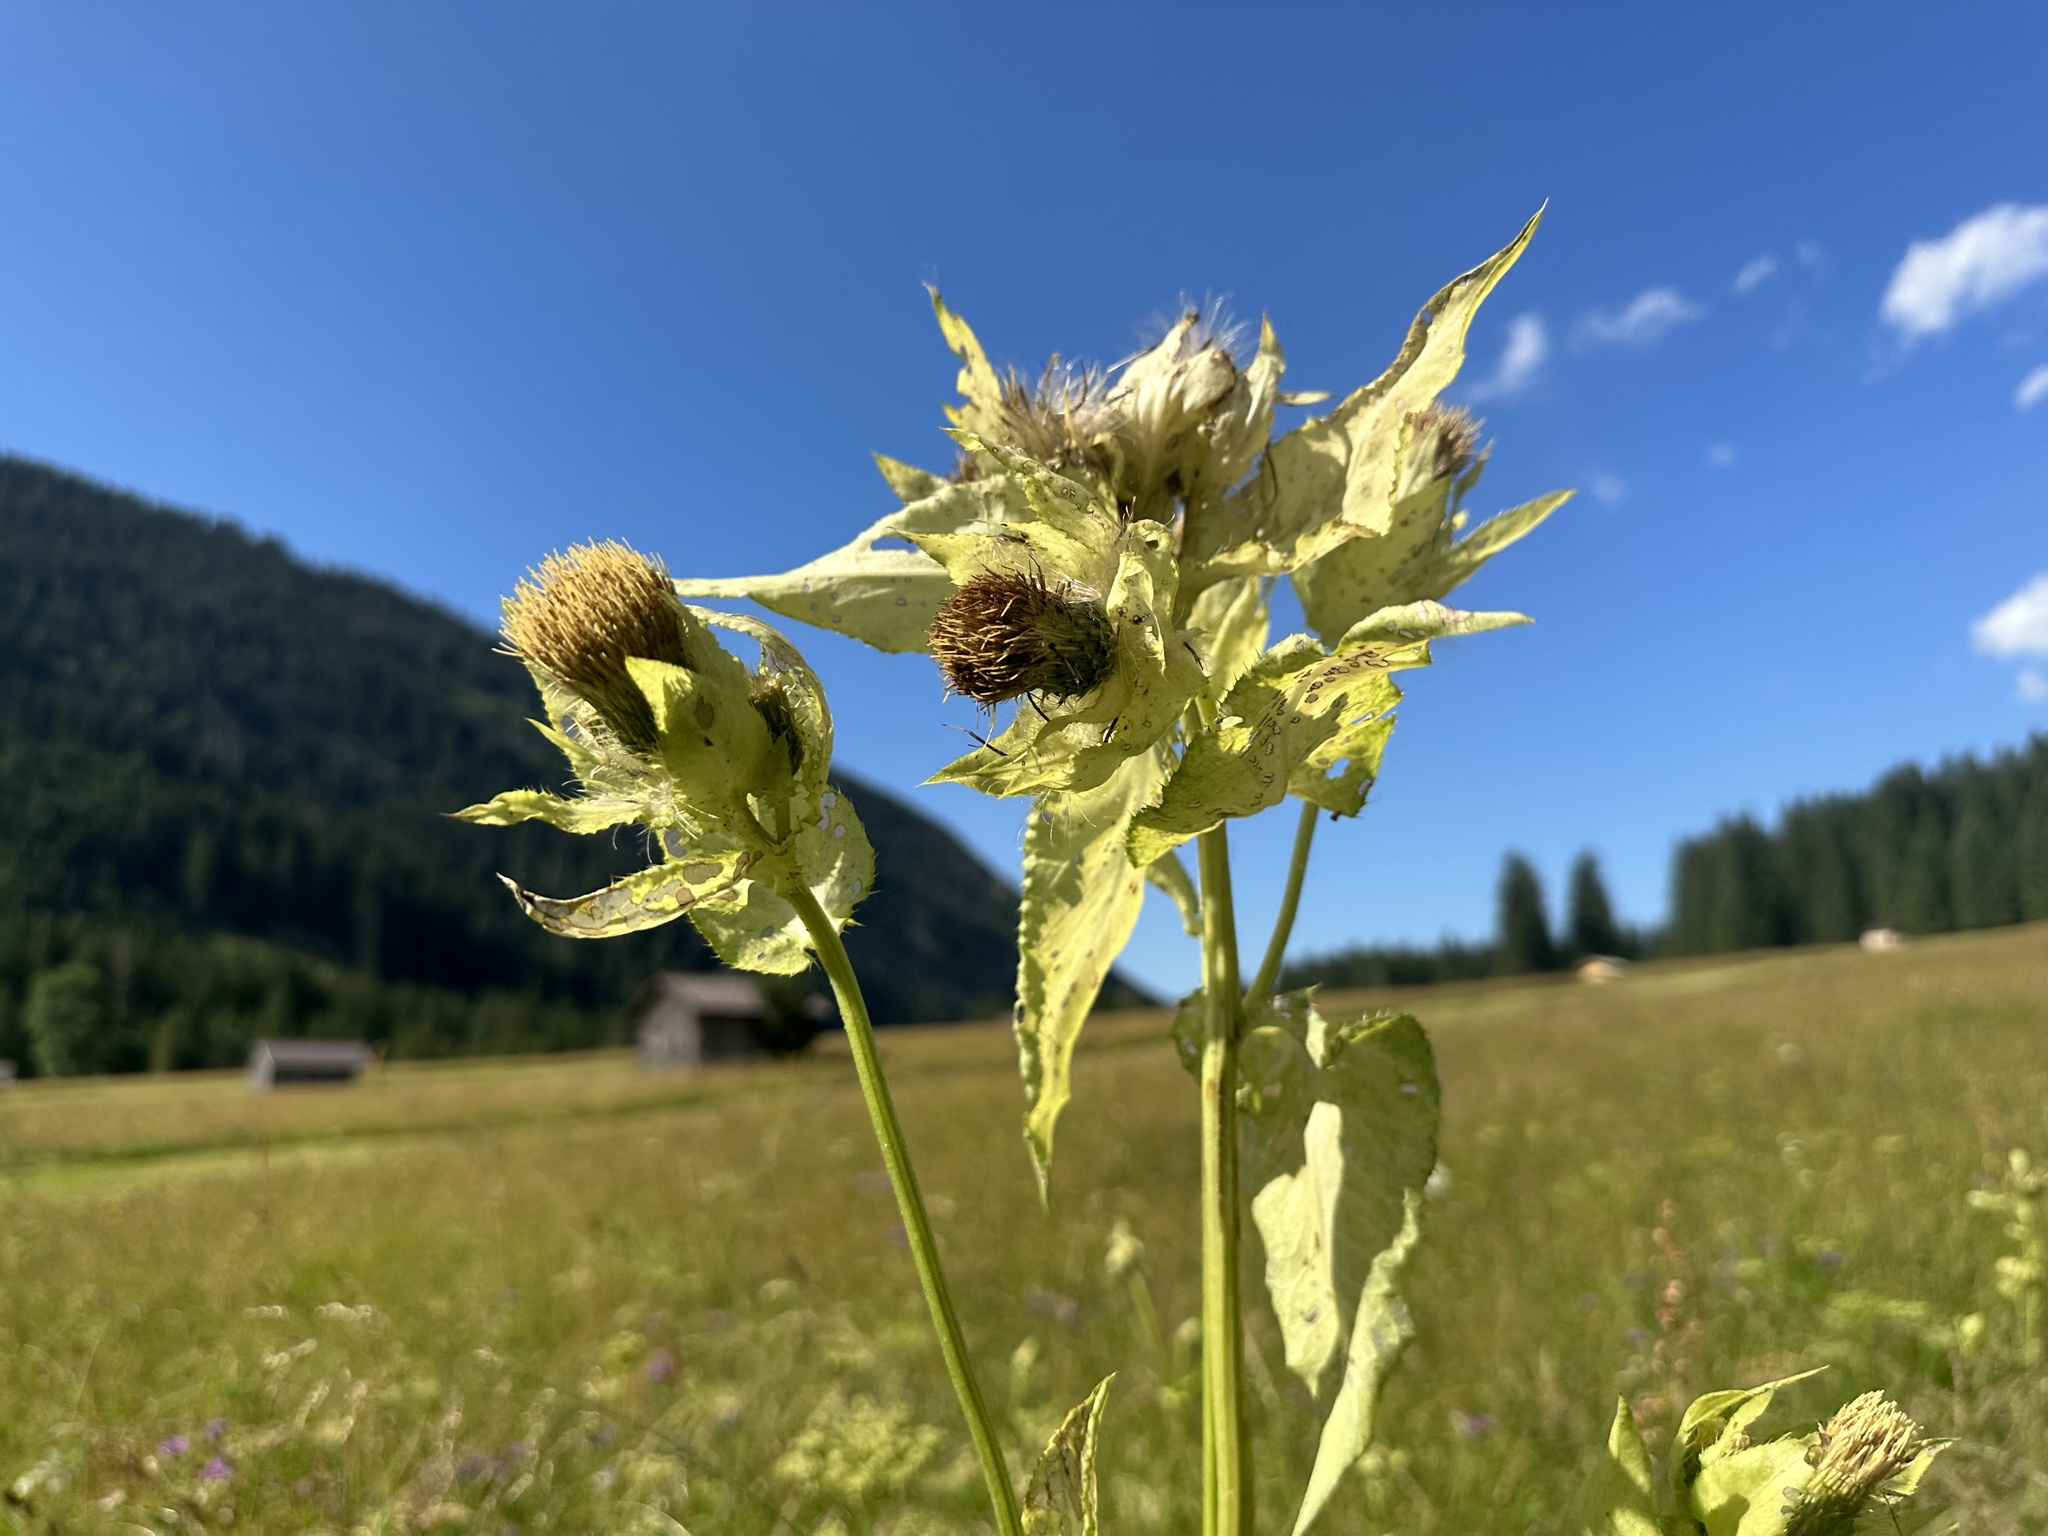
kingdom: Plantae
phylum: Tracheophyta
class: Magnoliopsida
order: Asterales
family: Asteraceae
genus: Cirsium
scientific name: Cirsium oleraceum
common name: Cabbage thistle
